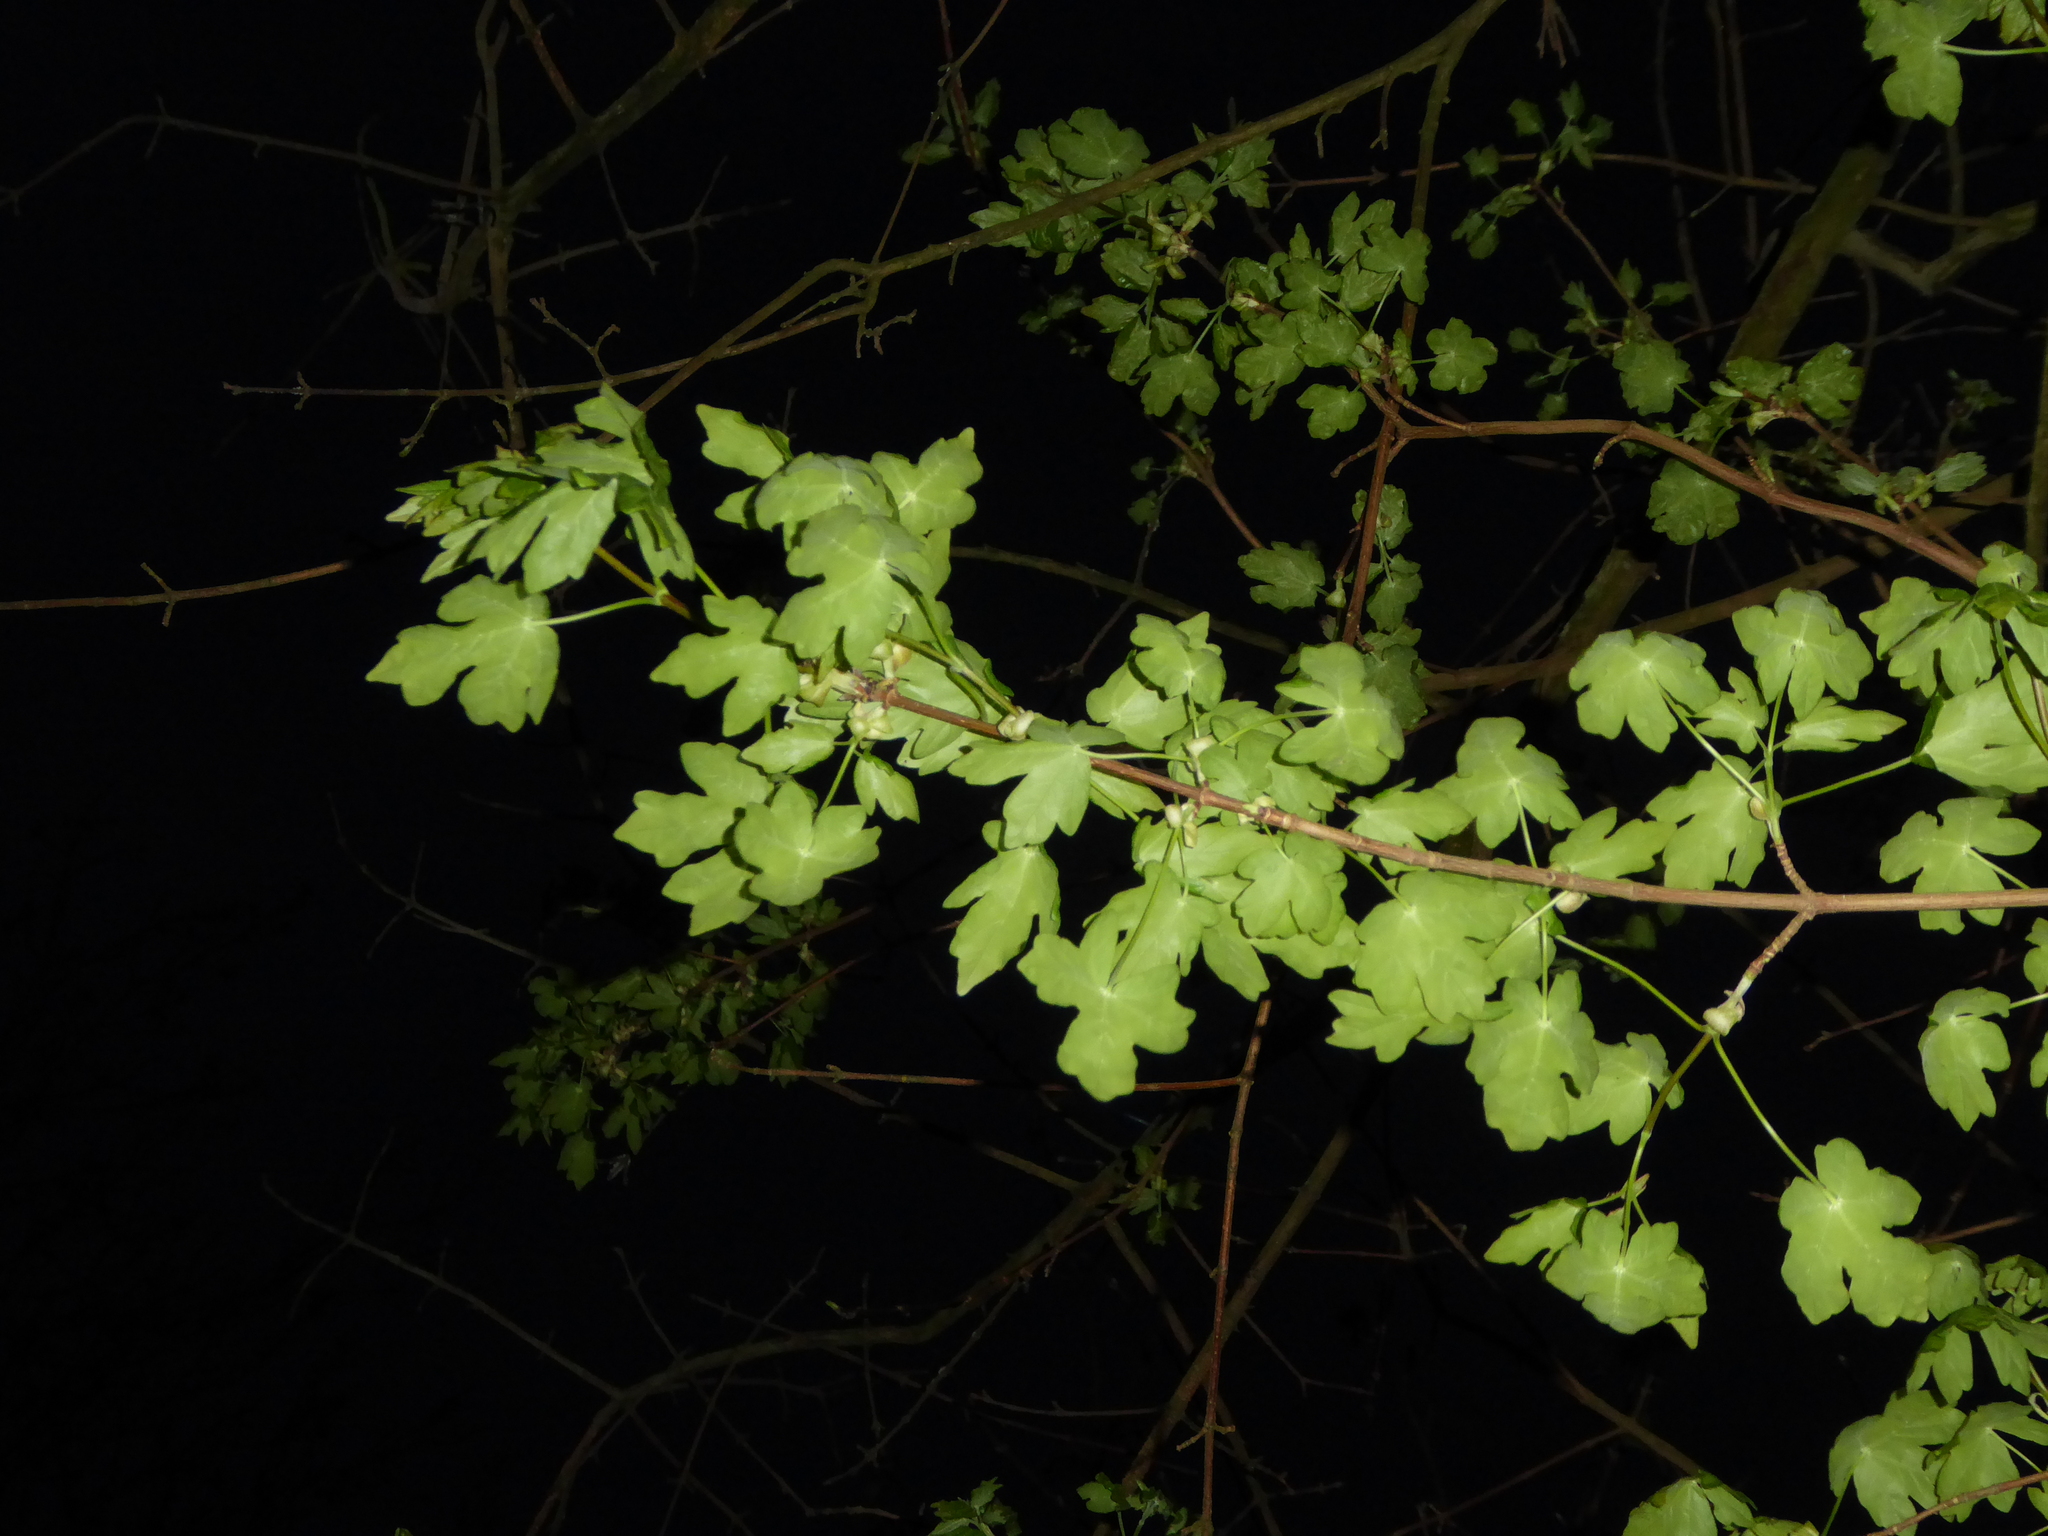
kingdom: Plantae
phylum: Tracheophyta
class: Magnoliopsida
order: Sapindales
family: Sapindaceae
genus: Acer
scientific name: Acer campestre
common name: Field maple
